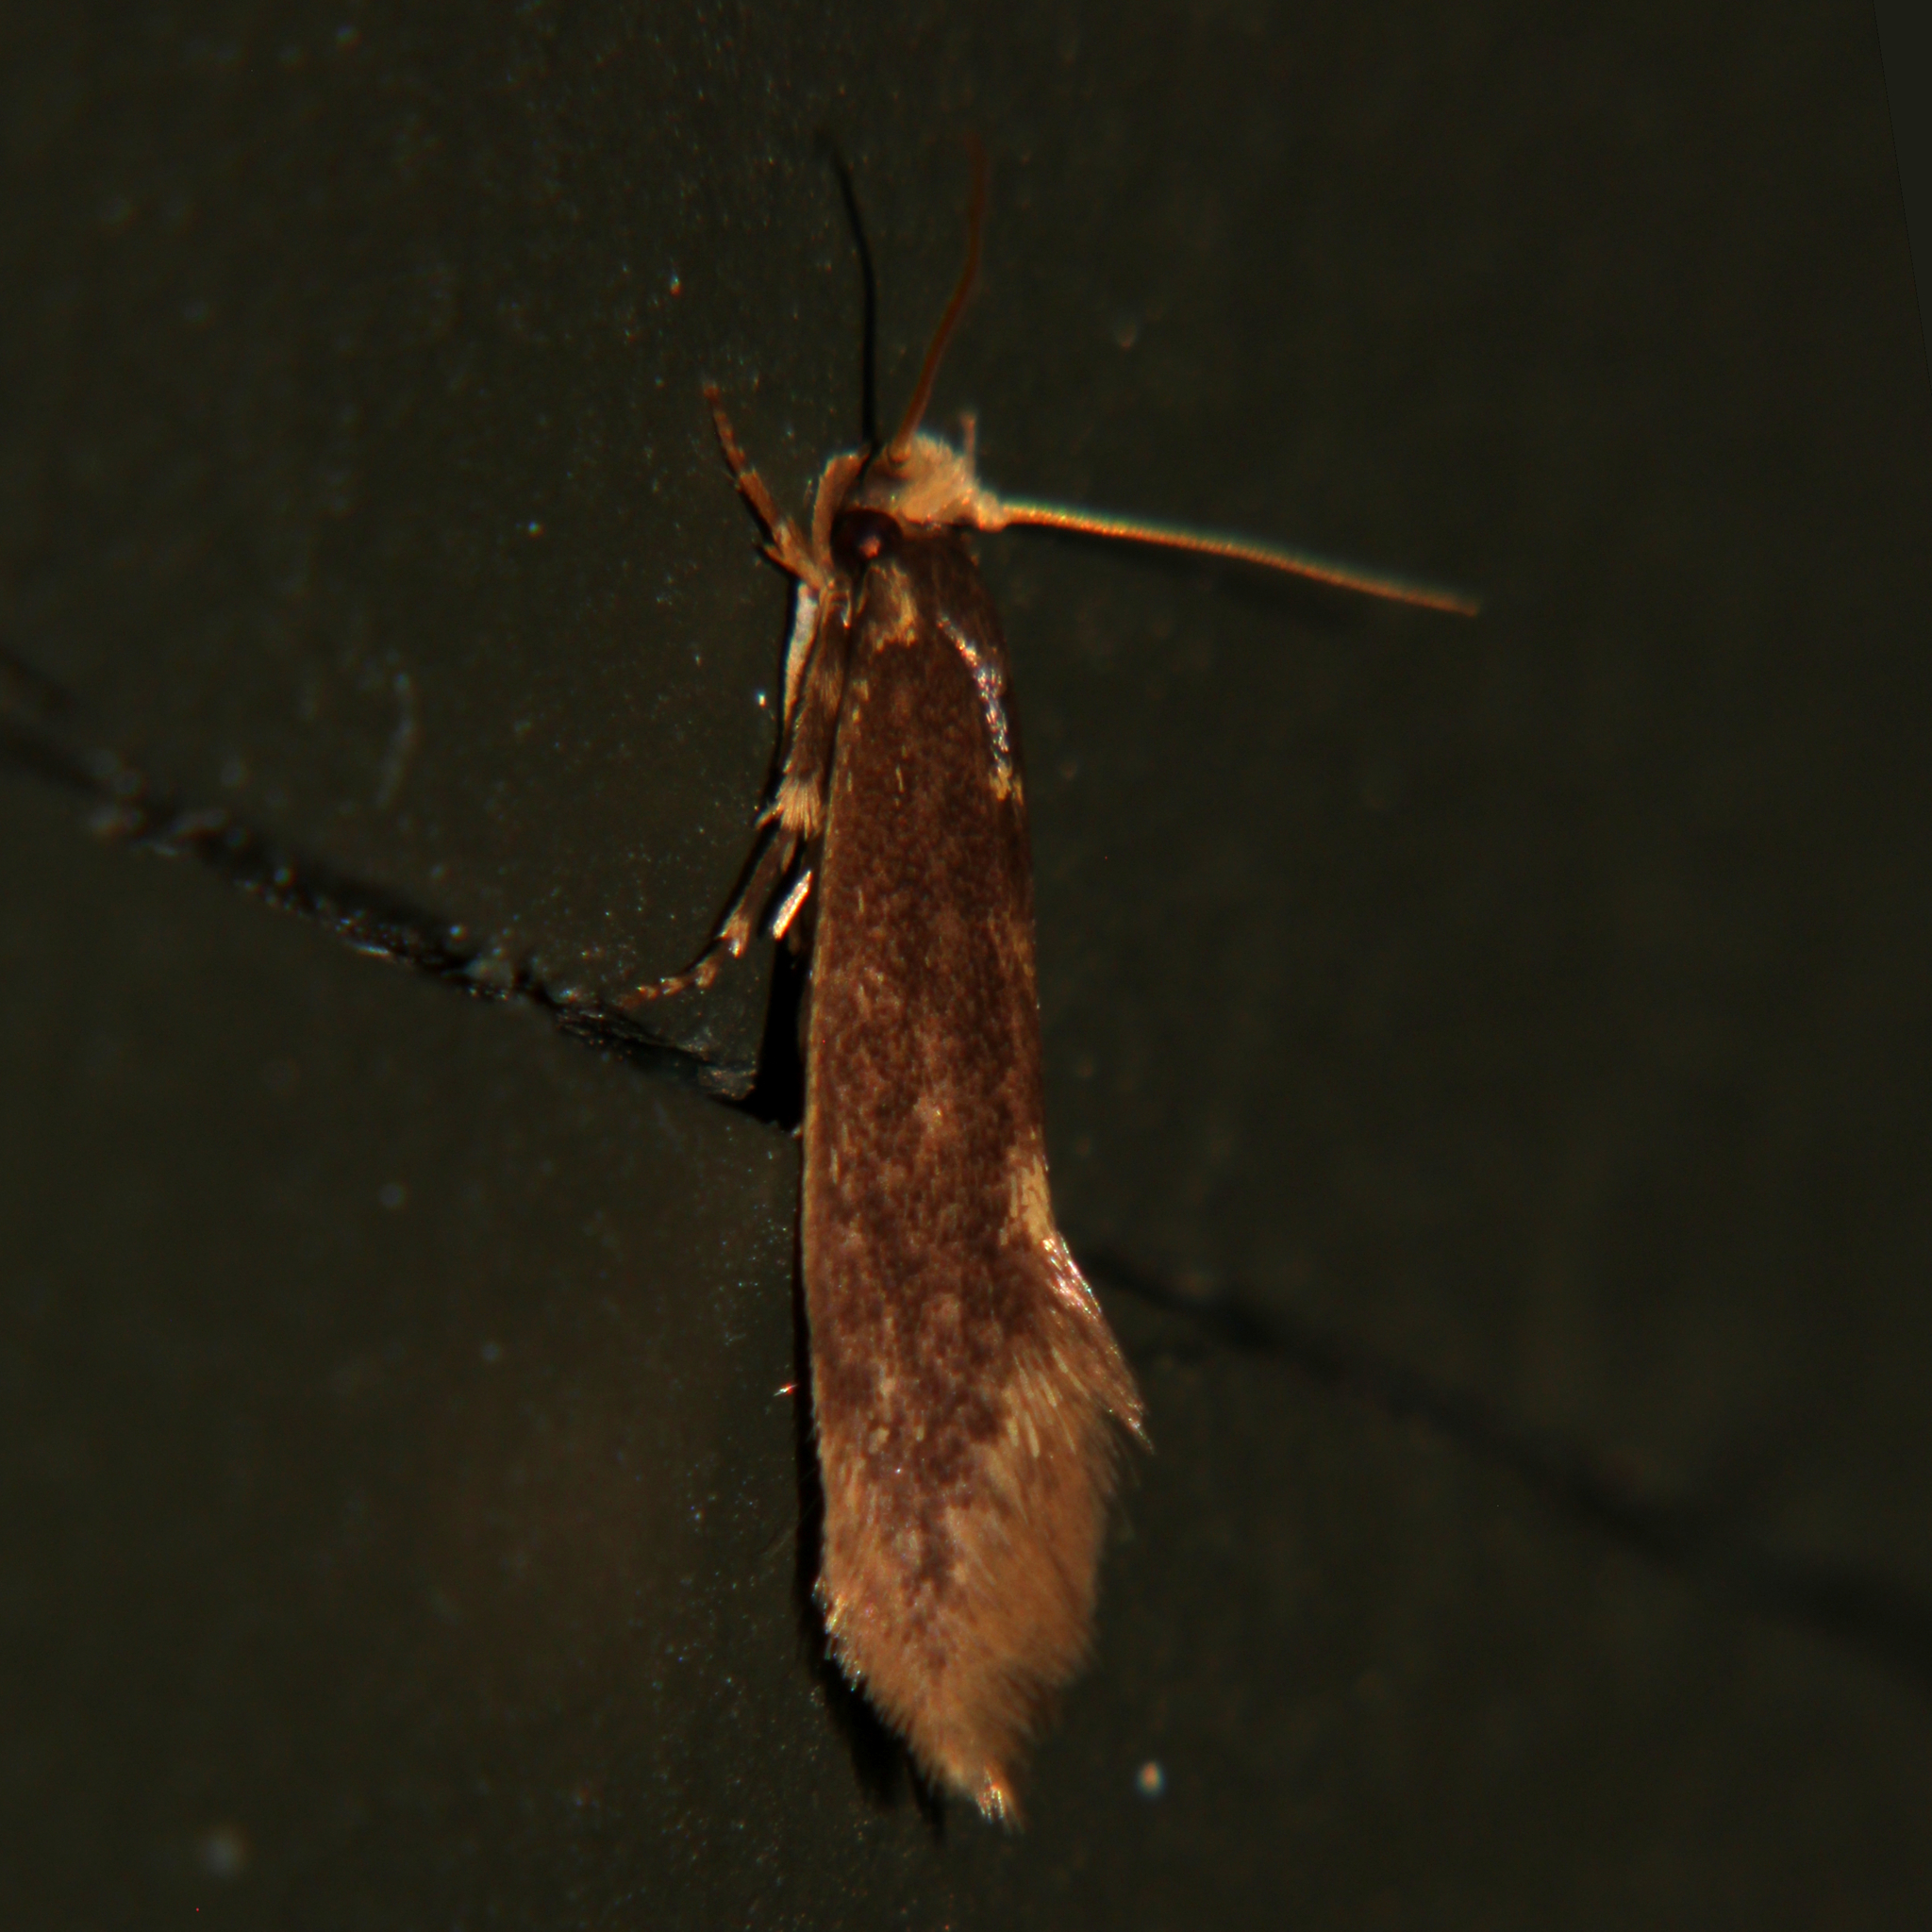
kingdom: Animalia
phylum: Arthropoda
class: Insecta
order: Lepidoptera
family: Tineidae
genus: Opogona
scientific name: Opogona omoscopa
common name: Moth
